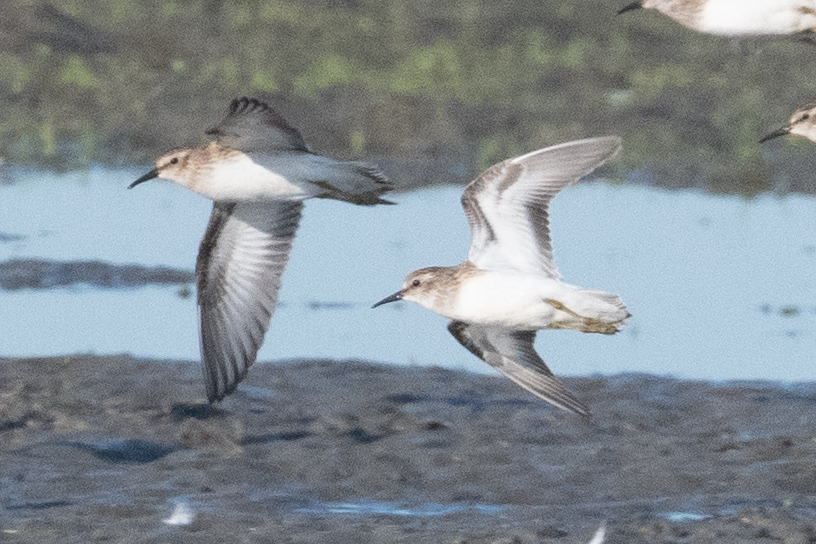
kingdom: Animalia
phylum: Chordata
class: Aves
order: Charadriiformes
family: Scolopacidae
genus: Calidris
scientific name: Calidris minutilla
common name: Least sandpiper
